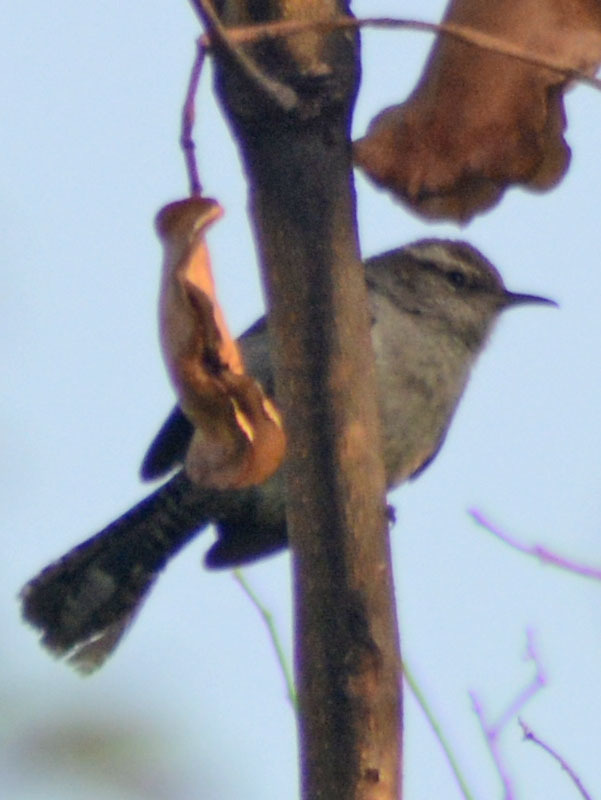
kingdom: Animalia
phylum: Chordata
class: Aves
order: Passeriformes
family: Troglodytidae
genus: Thryomanes
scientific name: Thryomanes bewickii
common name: Bewick's wren
